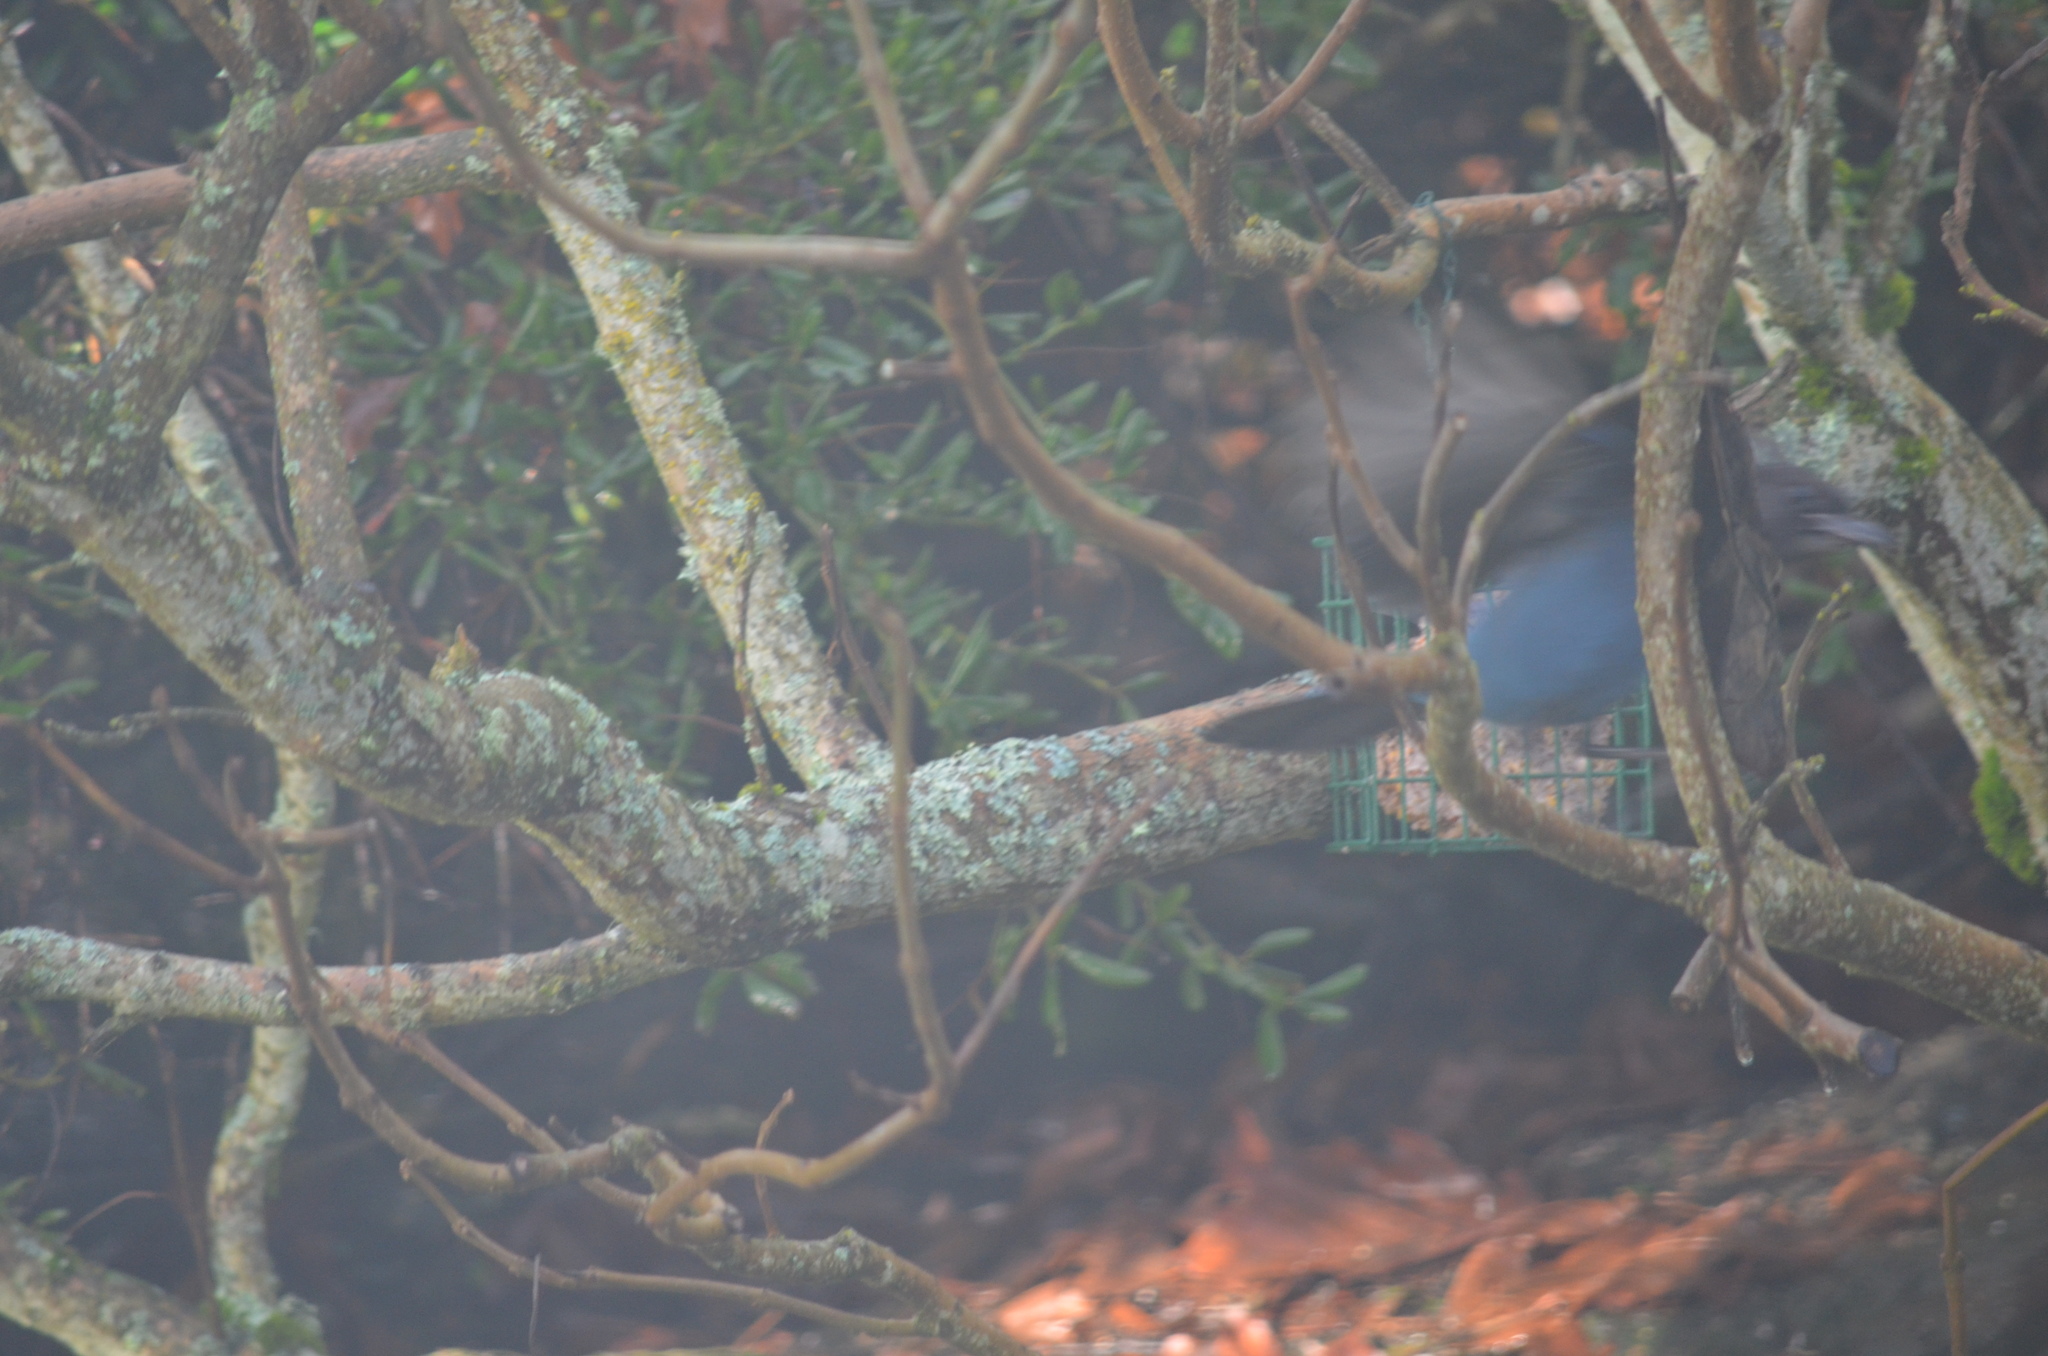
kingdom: Animalia
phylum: Chordata
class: Aves
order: Passeriformes
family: Corvidae
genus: Cyanocitta
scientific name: Cyanocitta stelleri
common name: Steller's jay
